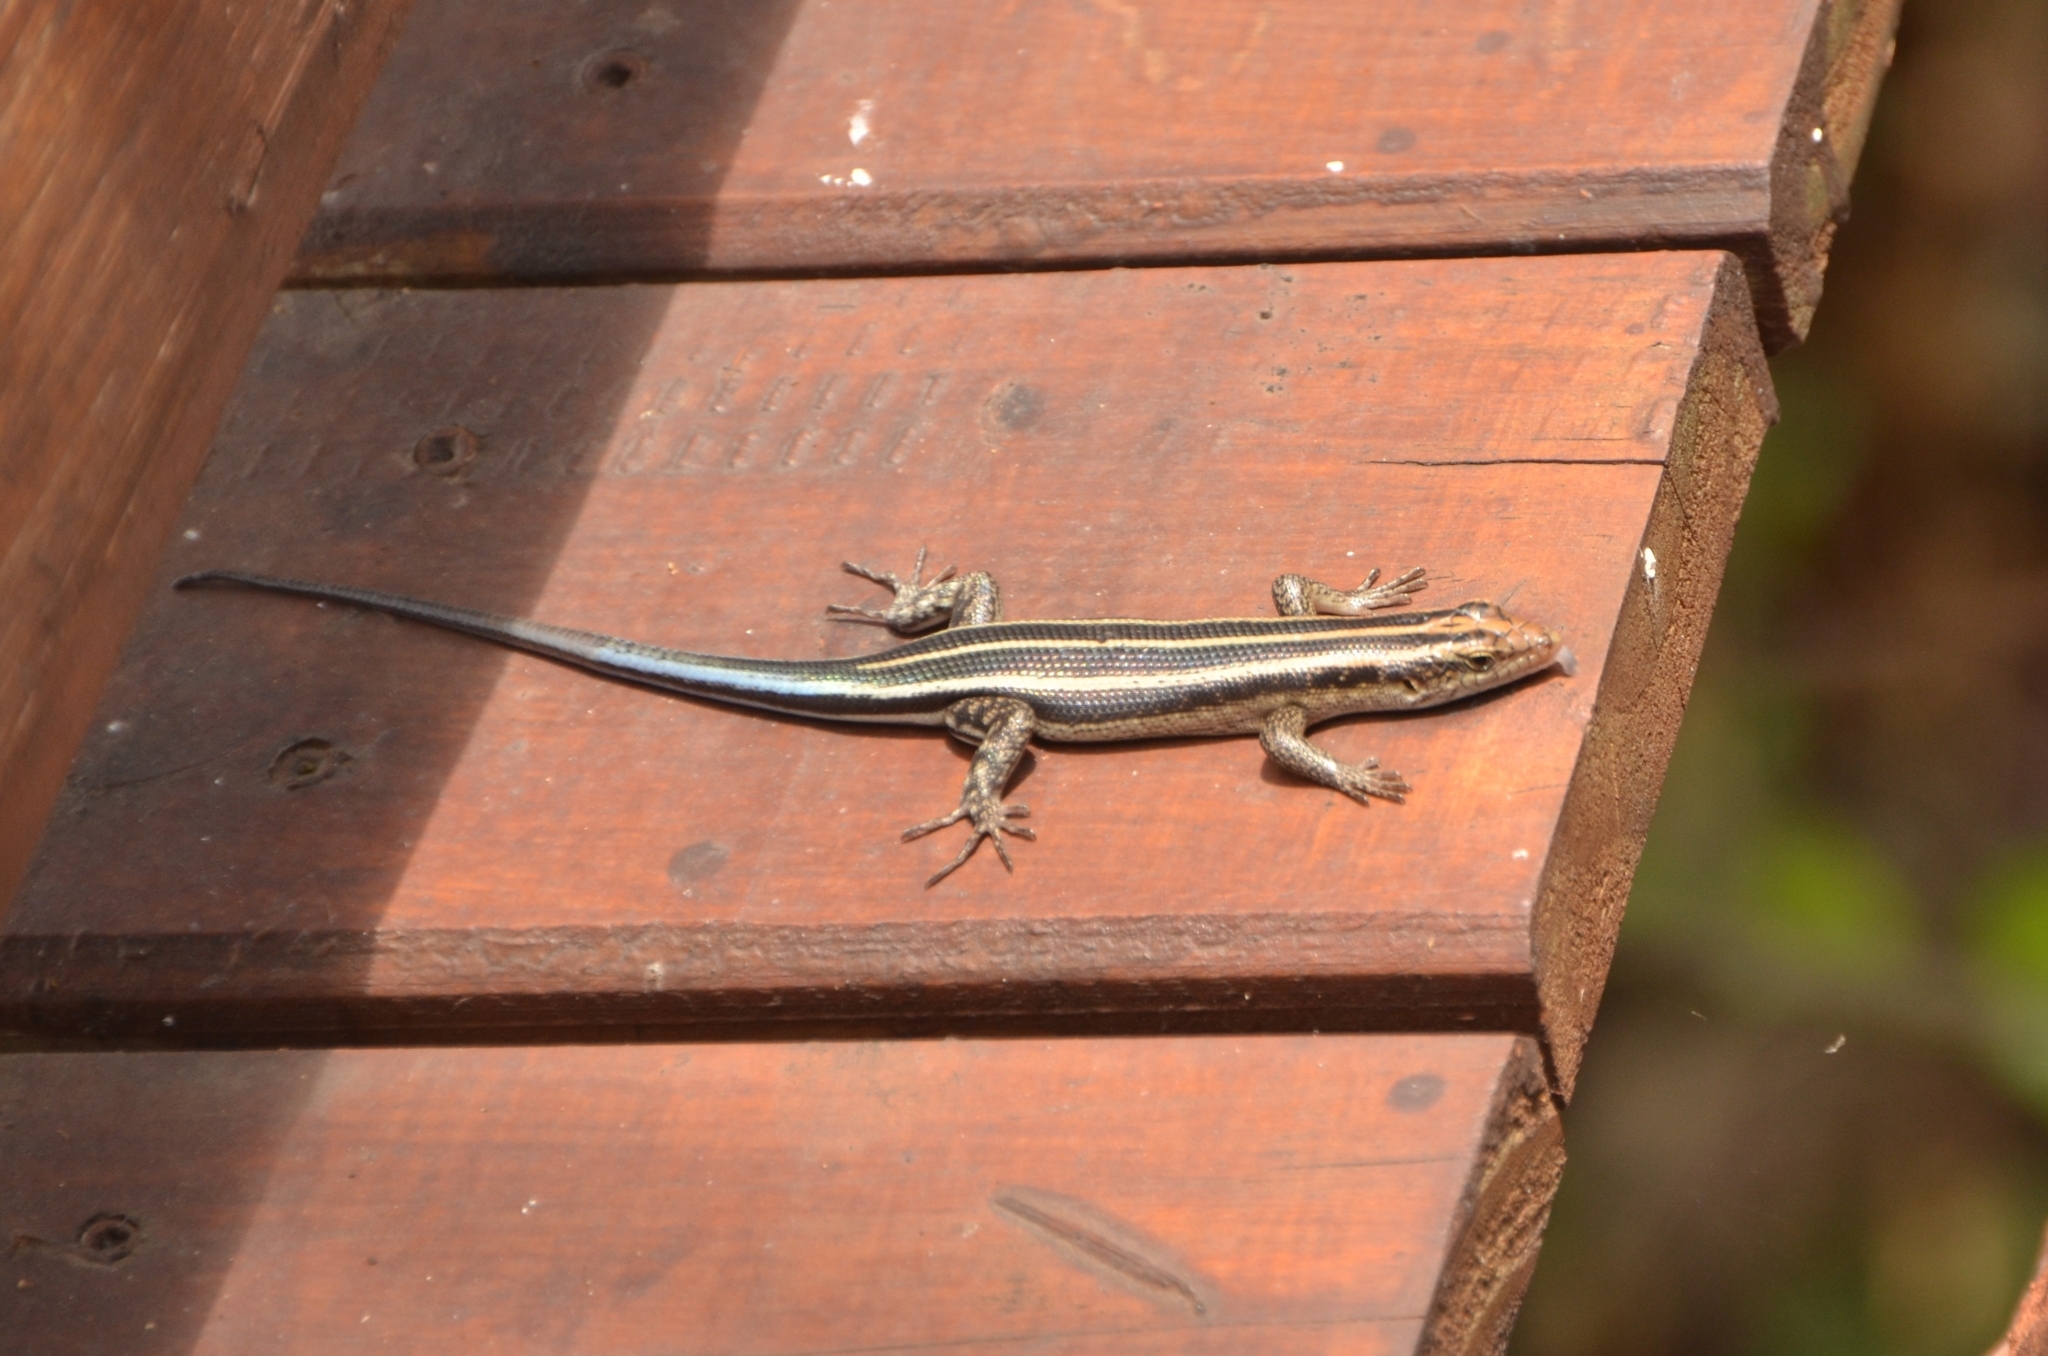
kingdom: Animalia
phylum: Chordata
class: Squamata
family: Scincidae
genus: Trachylepis
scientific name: Trachylepis margaritifera
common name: Rainbow skink
